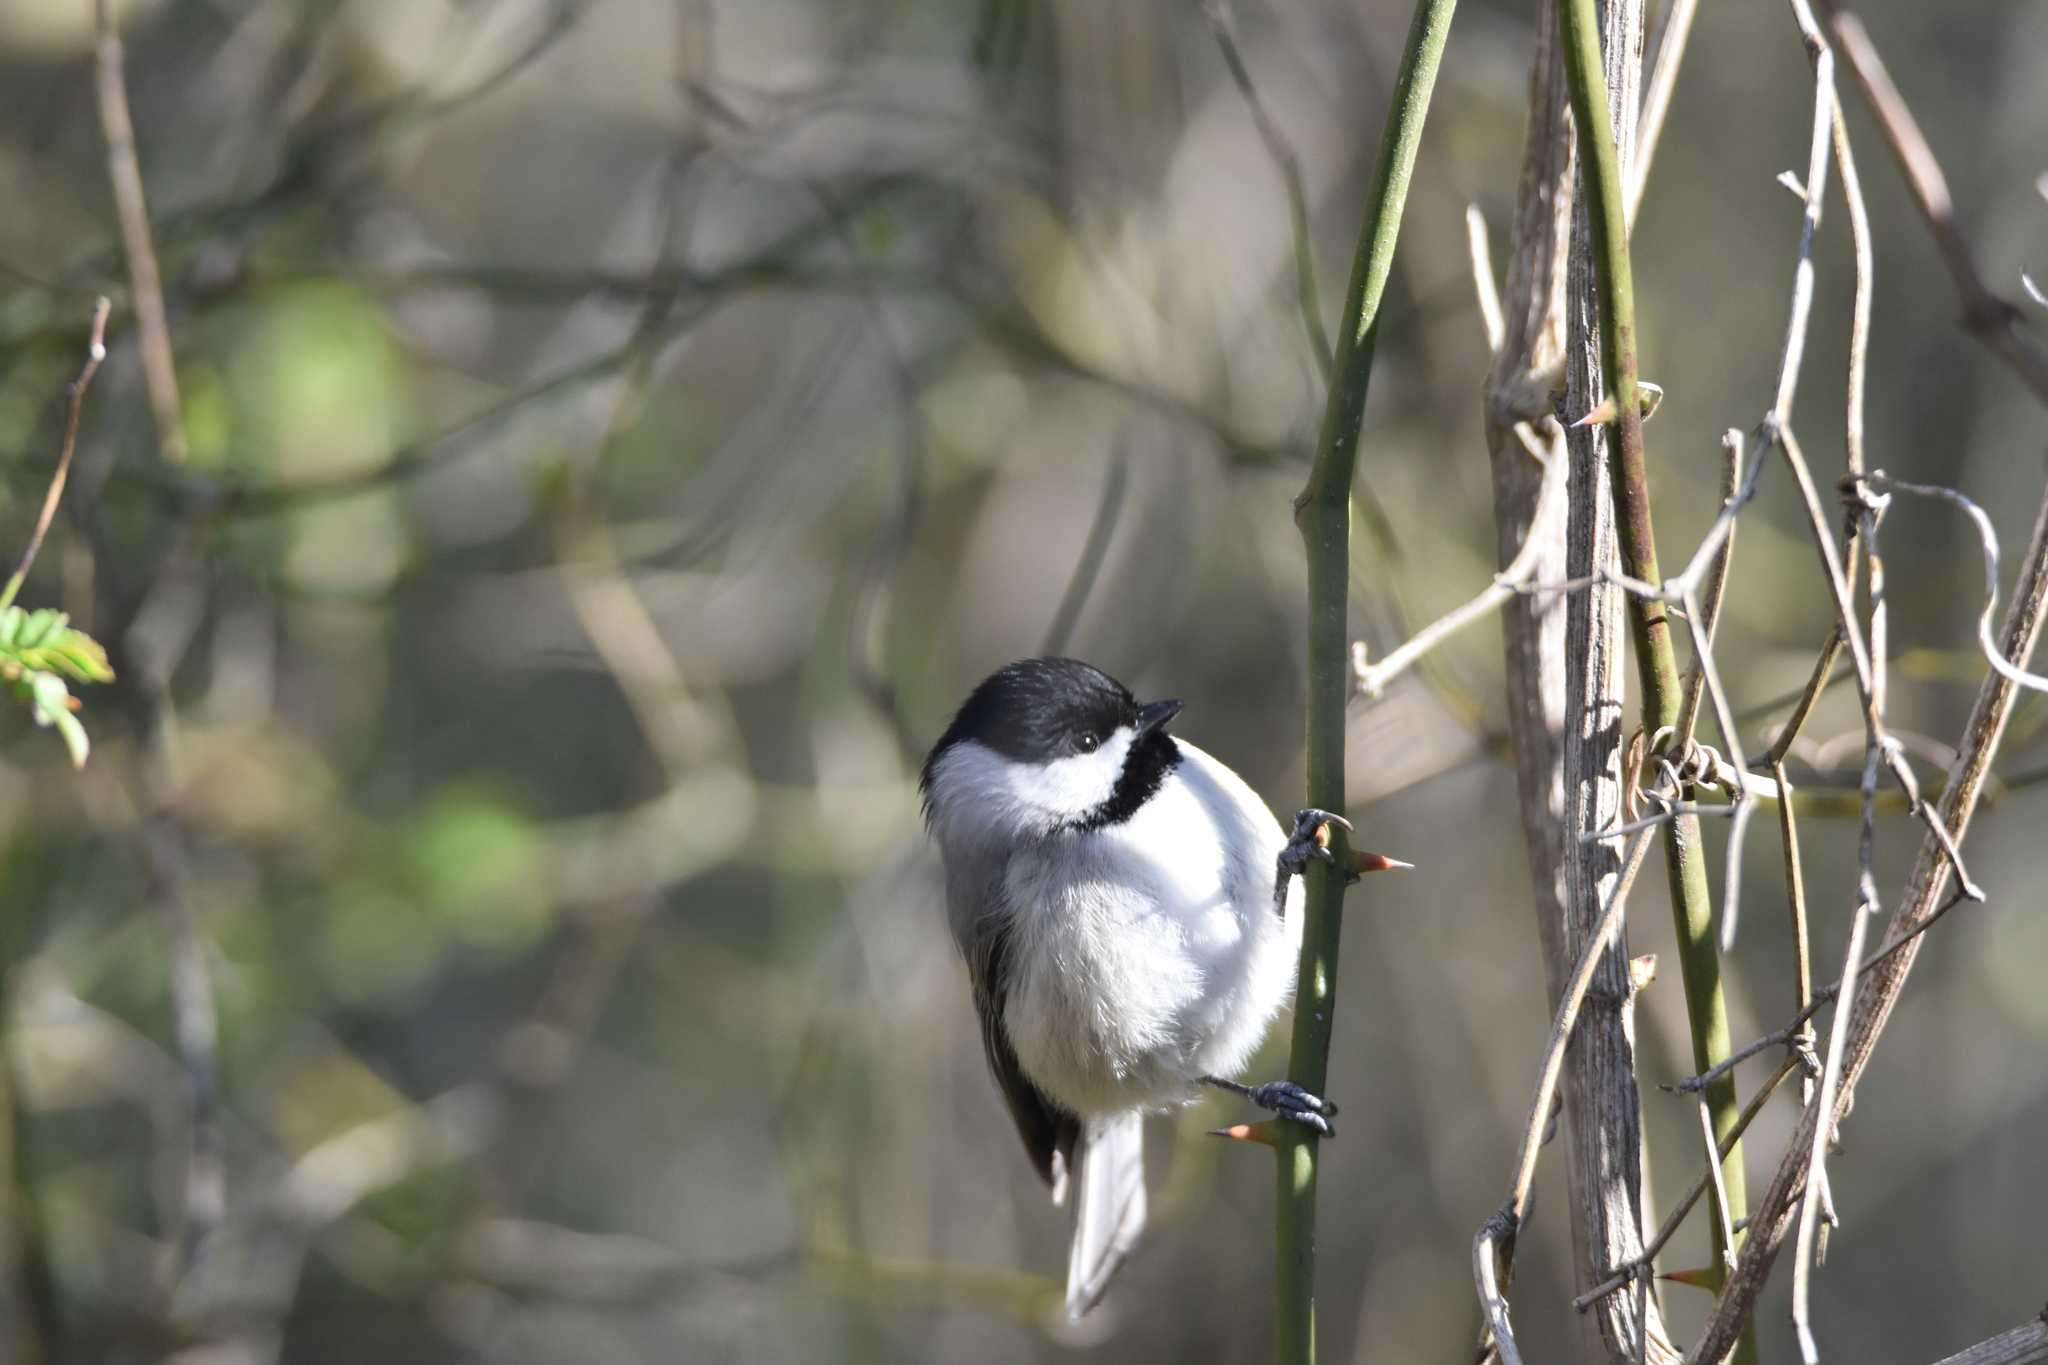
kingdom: Animalia
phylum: Chordata
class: Aves
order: Passeriformes
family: Paridae
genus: Poecile
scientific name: Poecile carolinensis
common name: Carolina chickadee
